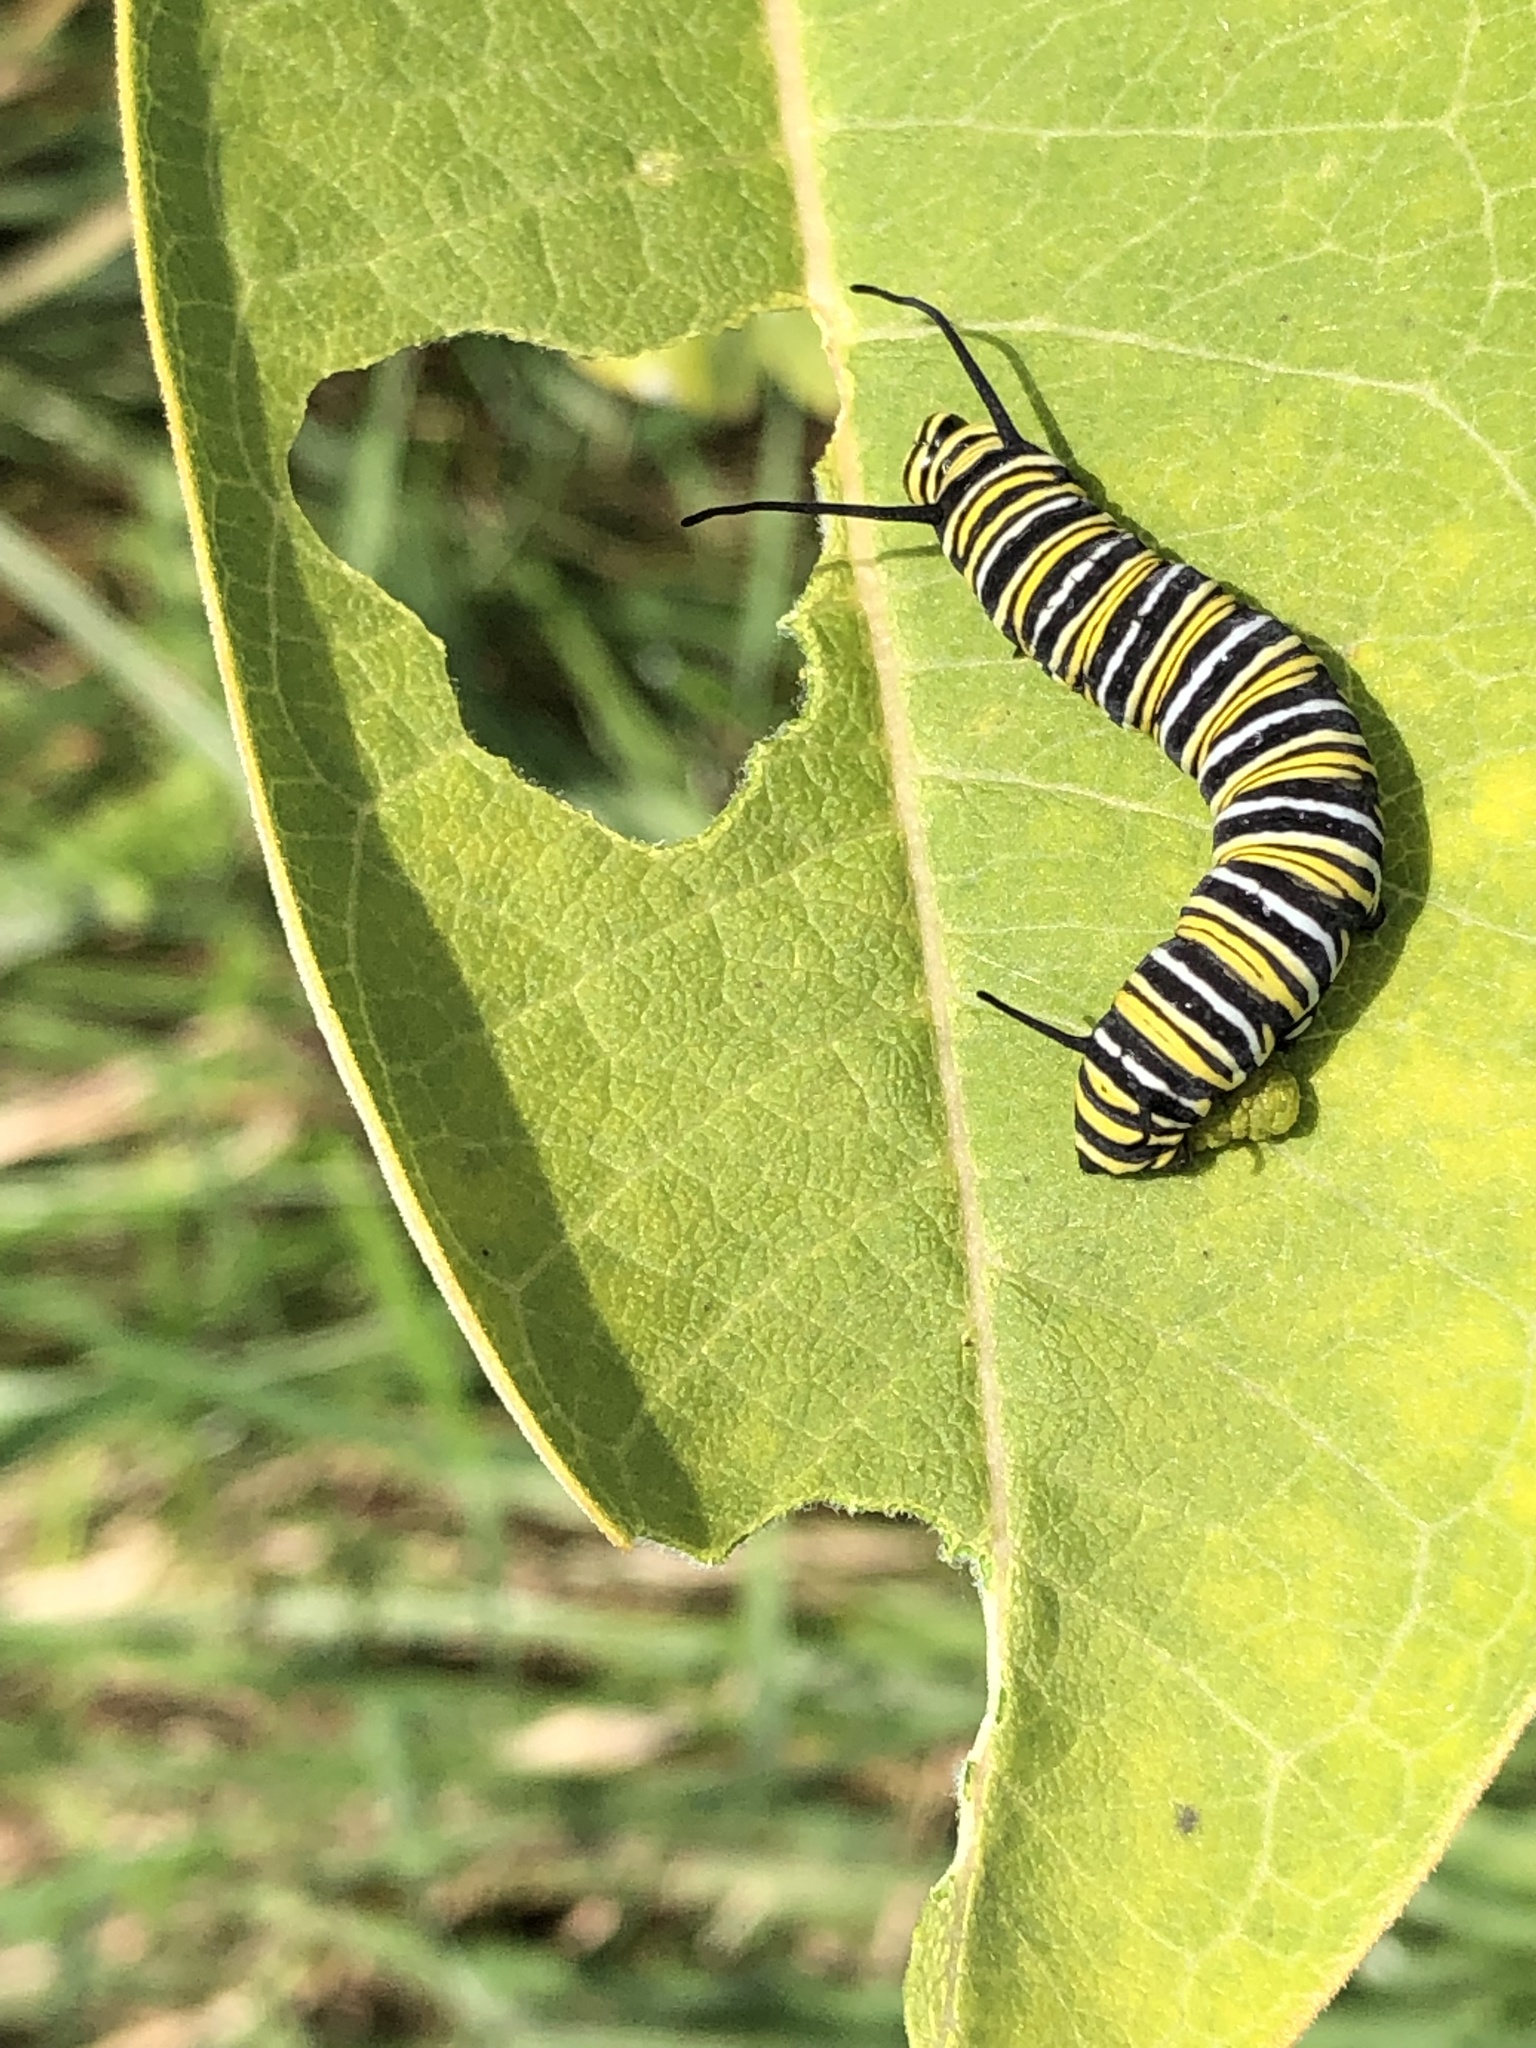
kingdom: Animalia
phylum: Arthropoda
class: Insecta
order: Lepidoptera
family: Nymphalidae
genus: Danaus
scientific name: Danaus plexippus
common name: Monarch
